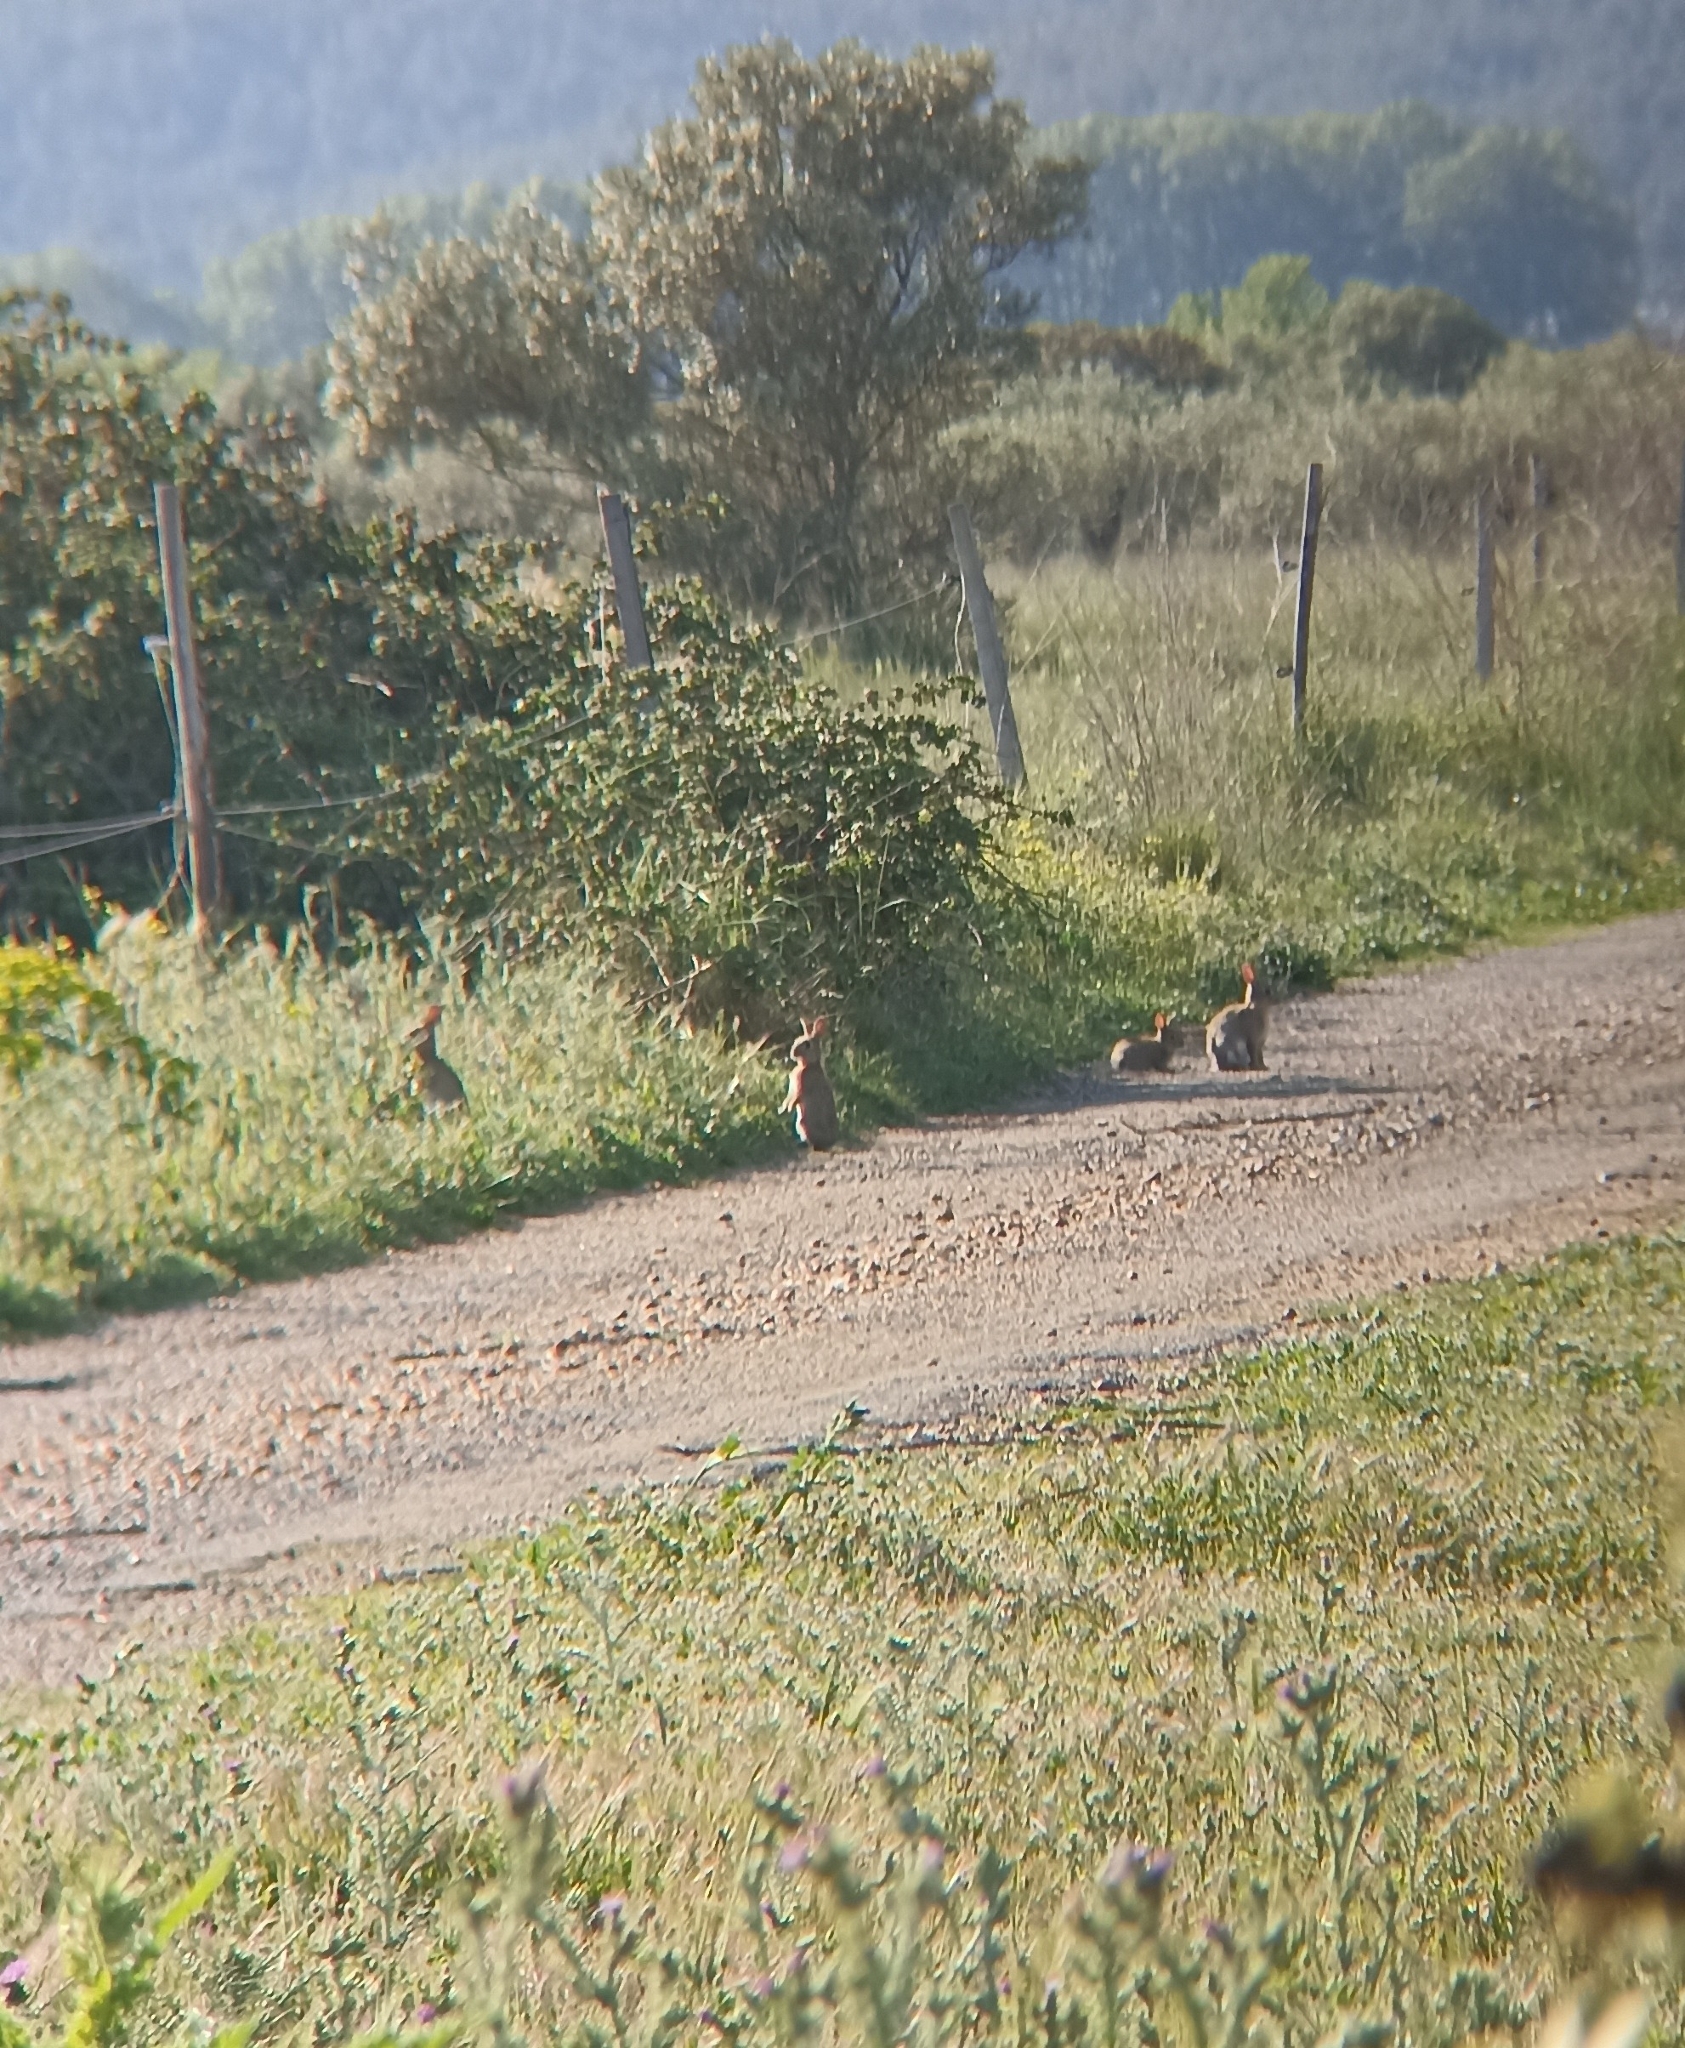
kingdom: Animalia
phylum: Chordata
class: Mammalia
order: Lagomorpha
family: Leporidae
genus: Oryctolagus
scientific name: Oryctolagus cuniculus
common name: European rabbit
